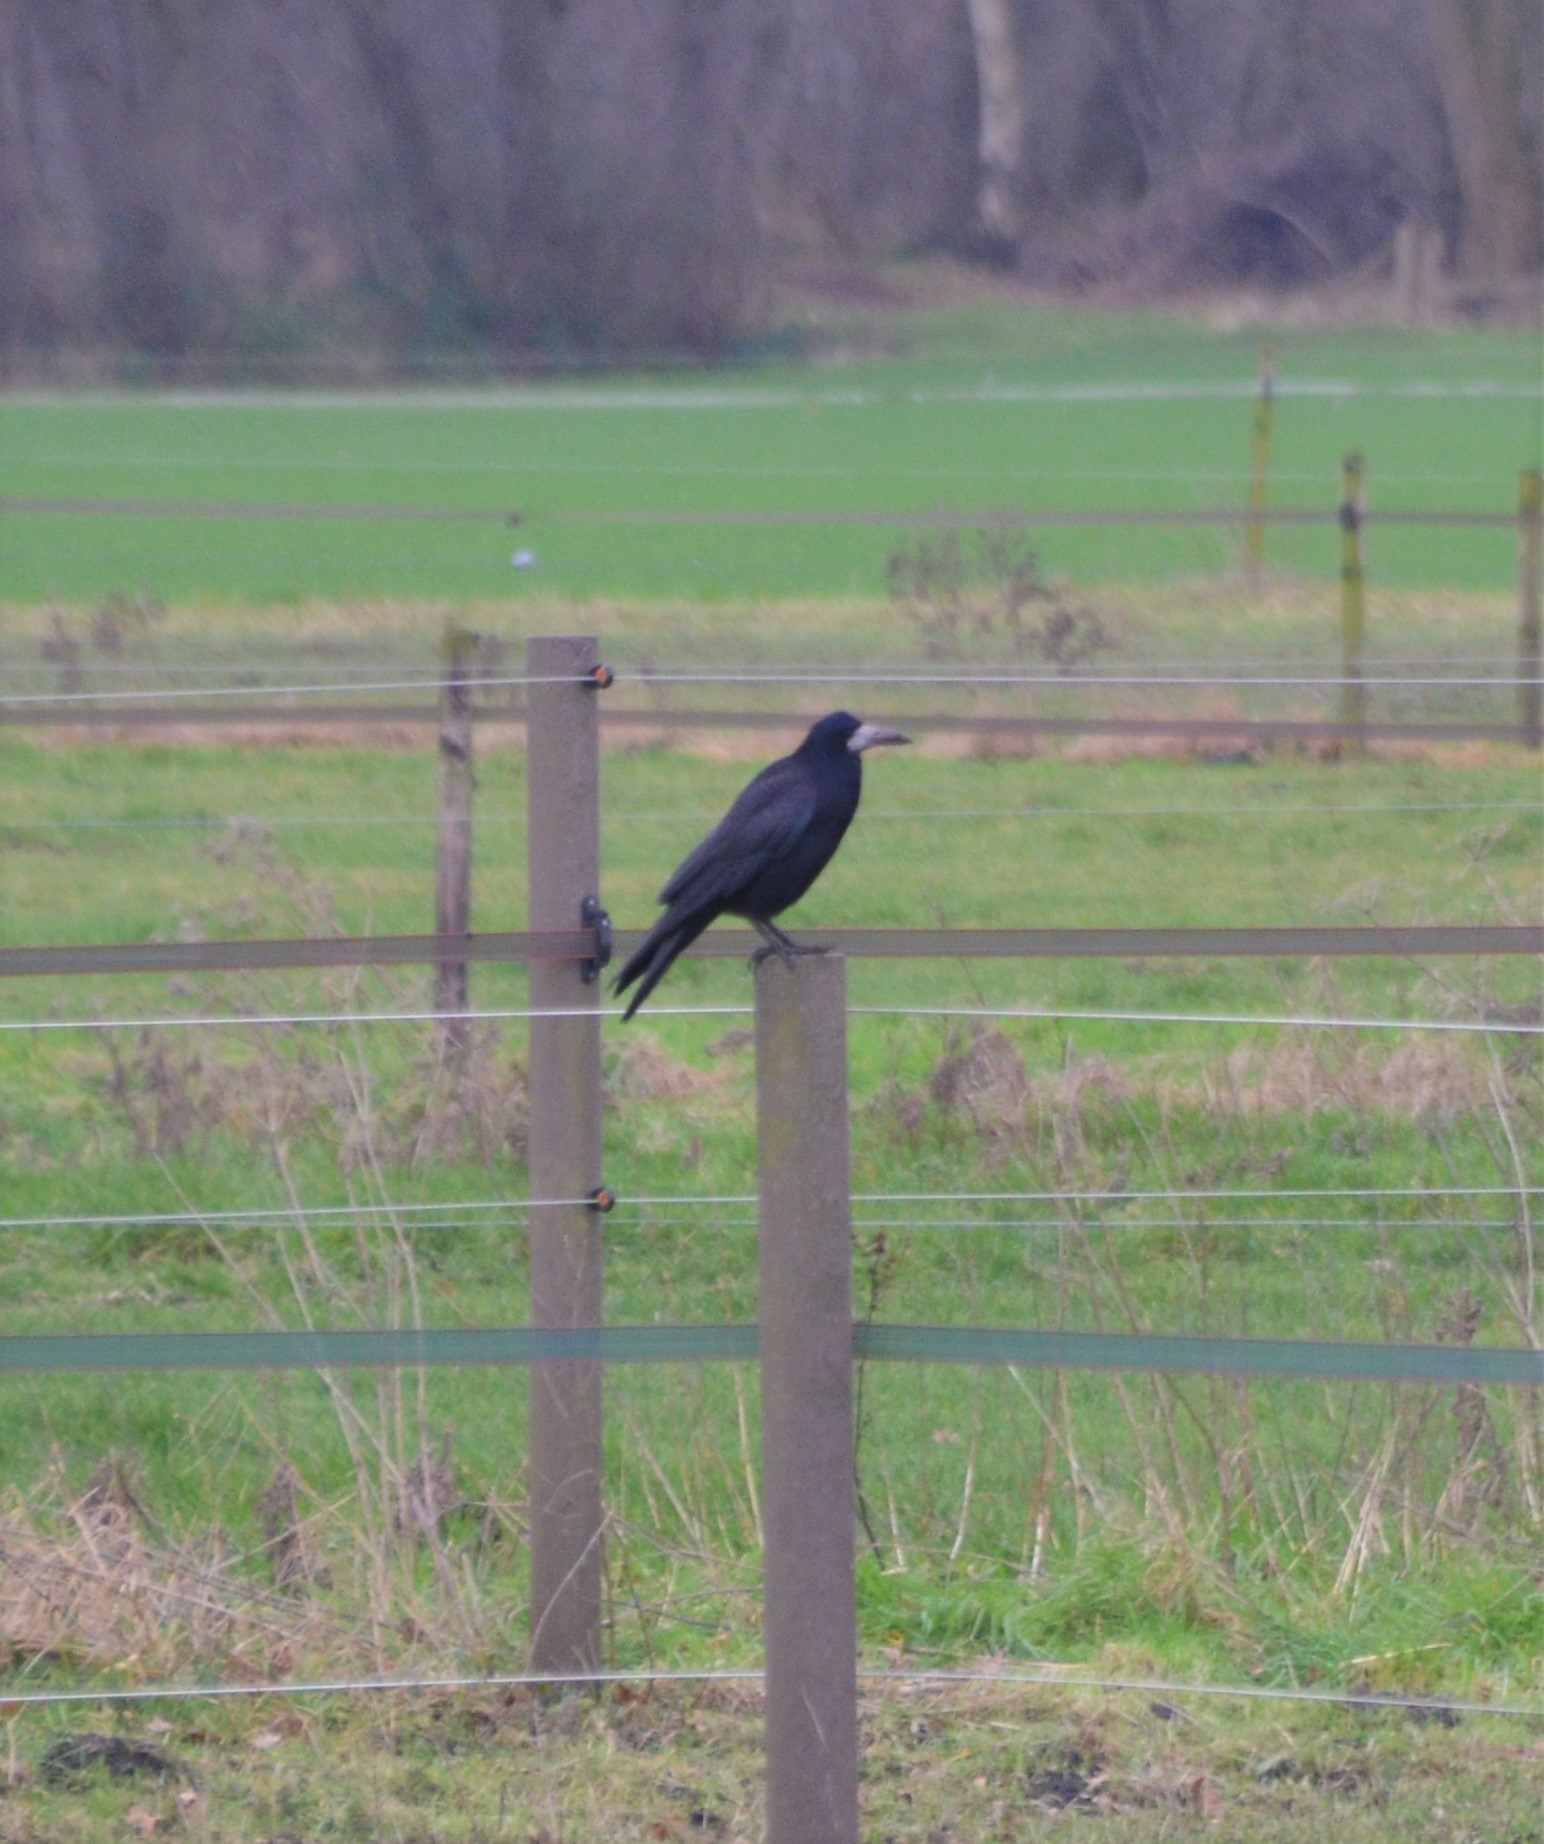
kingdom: Animalia
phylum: Chordata
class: Aves
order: Passeriformes
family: Corvidae
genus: Corvus
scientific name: Corvus frugilegus
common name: Rook
